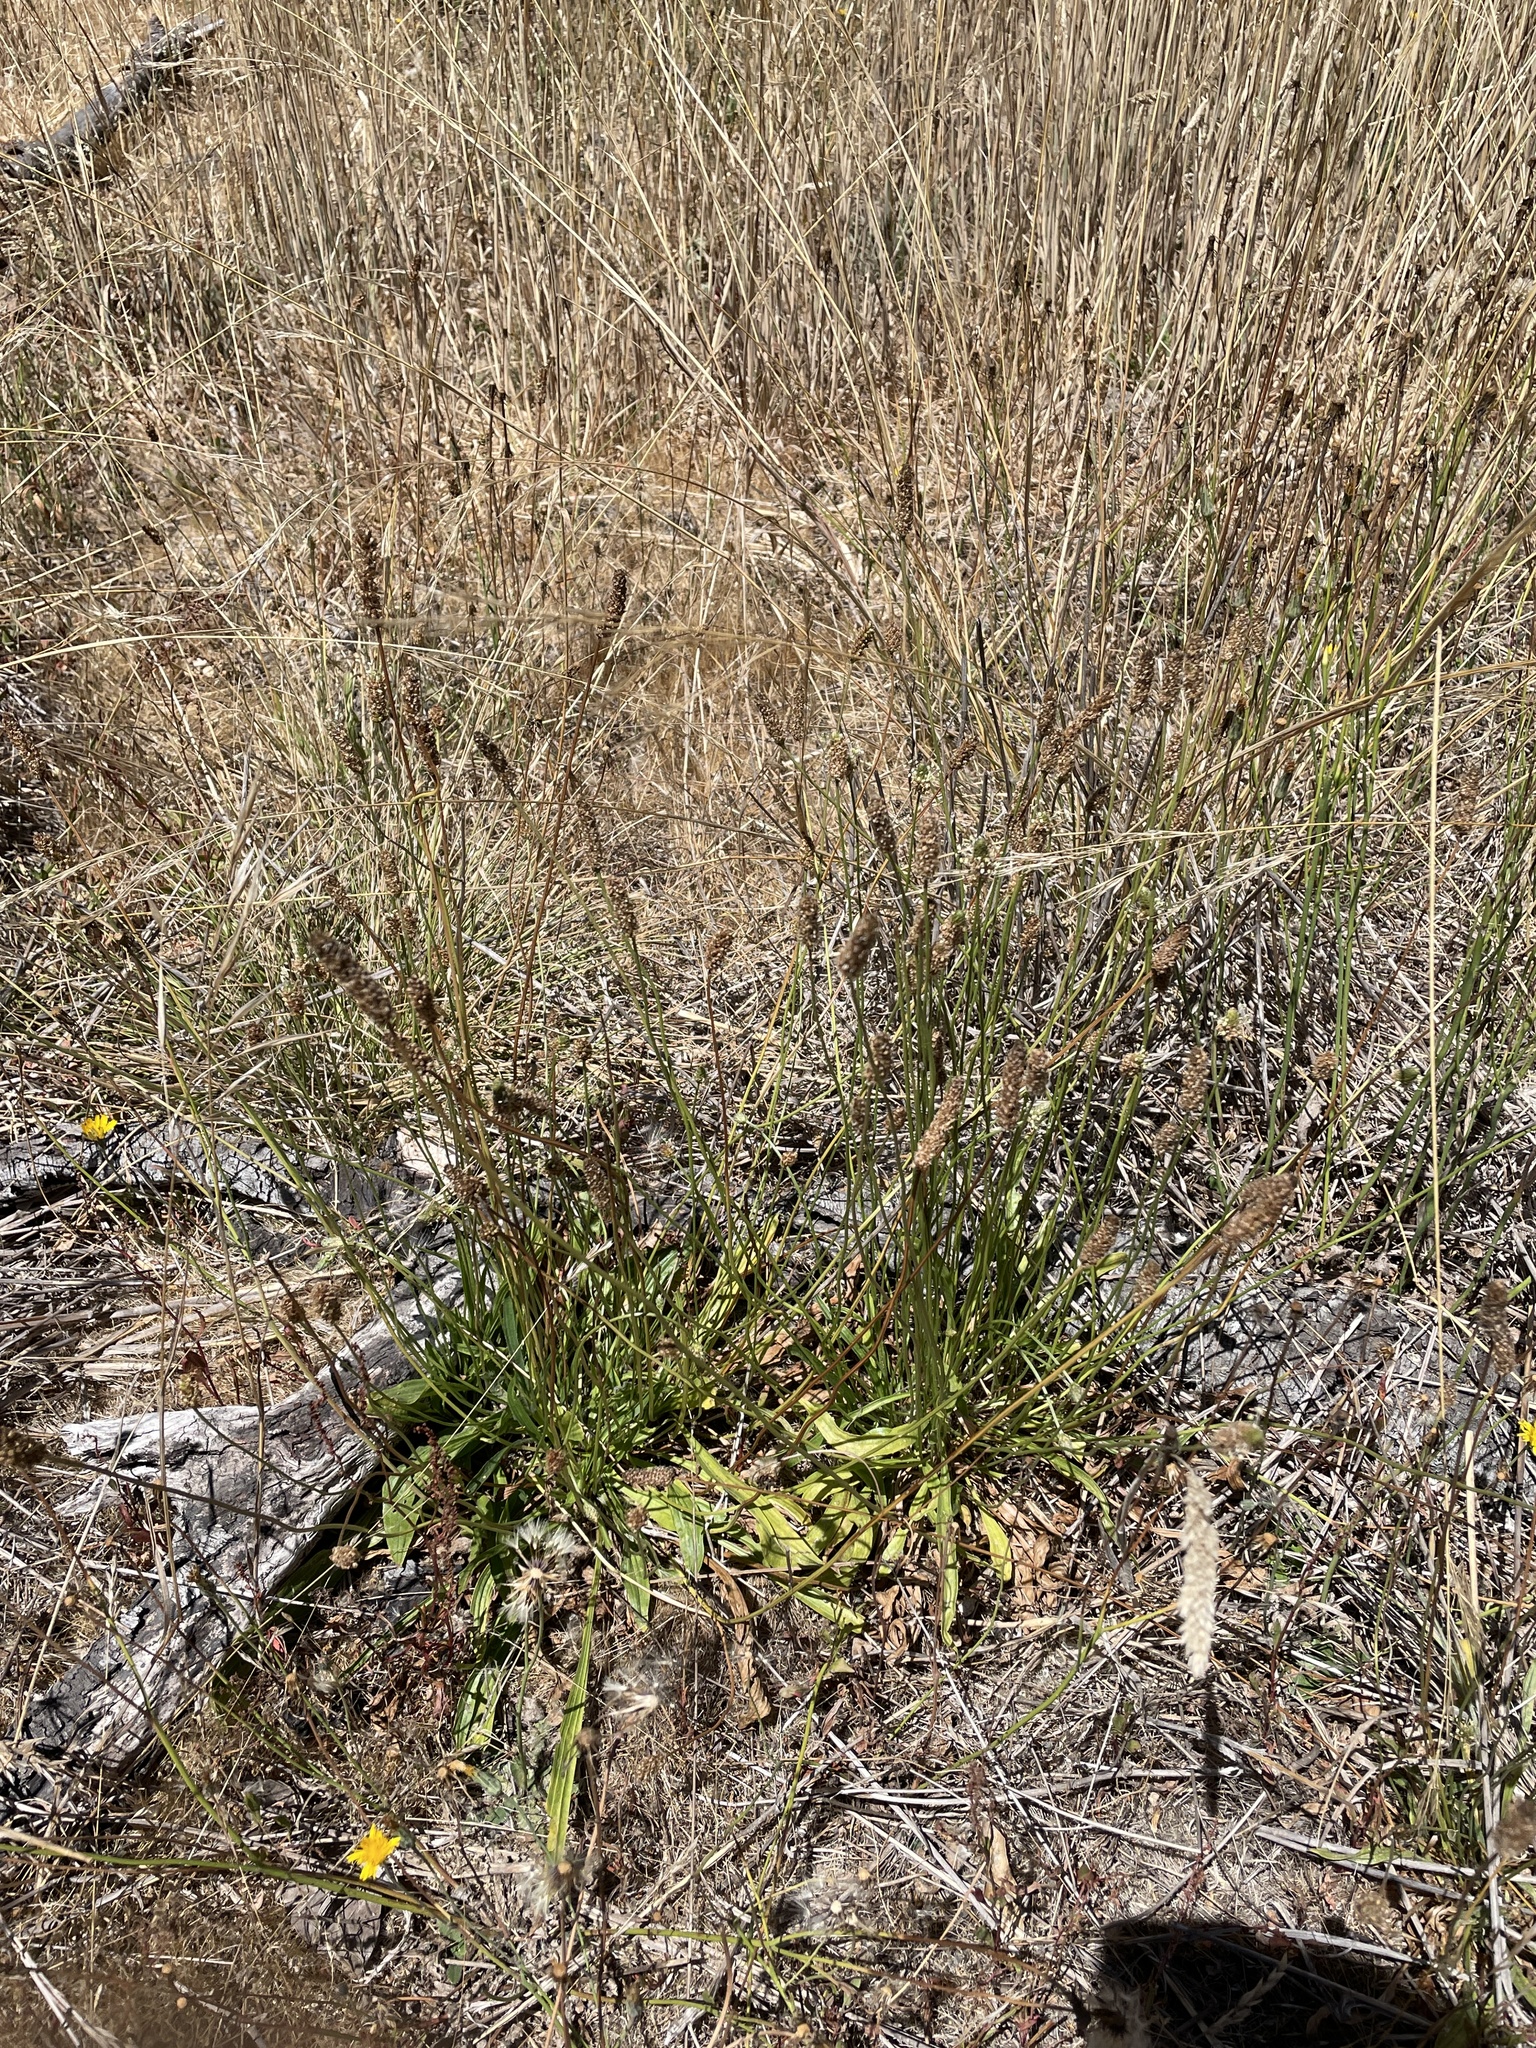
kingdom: Plantae
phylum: Tracheophyta
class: Magnoliopsida
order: Lamiales
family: Plantaginaceae
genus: Plantago
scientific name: Plantago lanceolata
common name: Ribwort plantain
